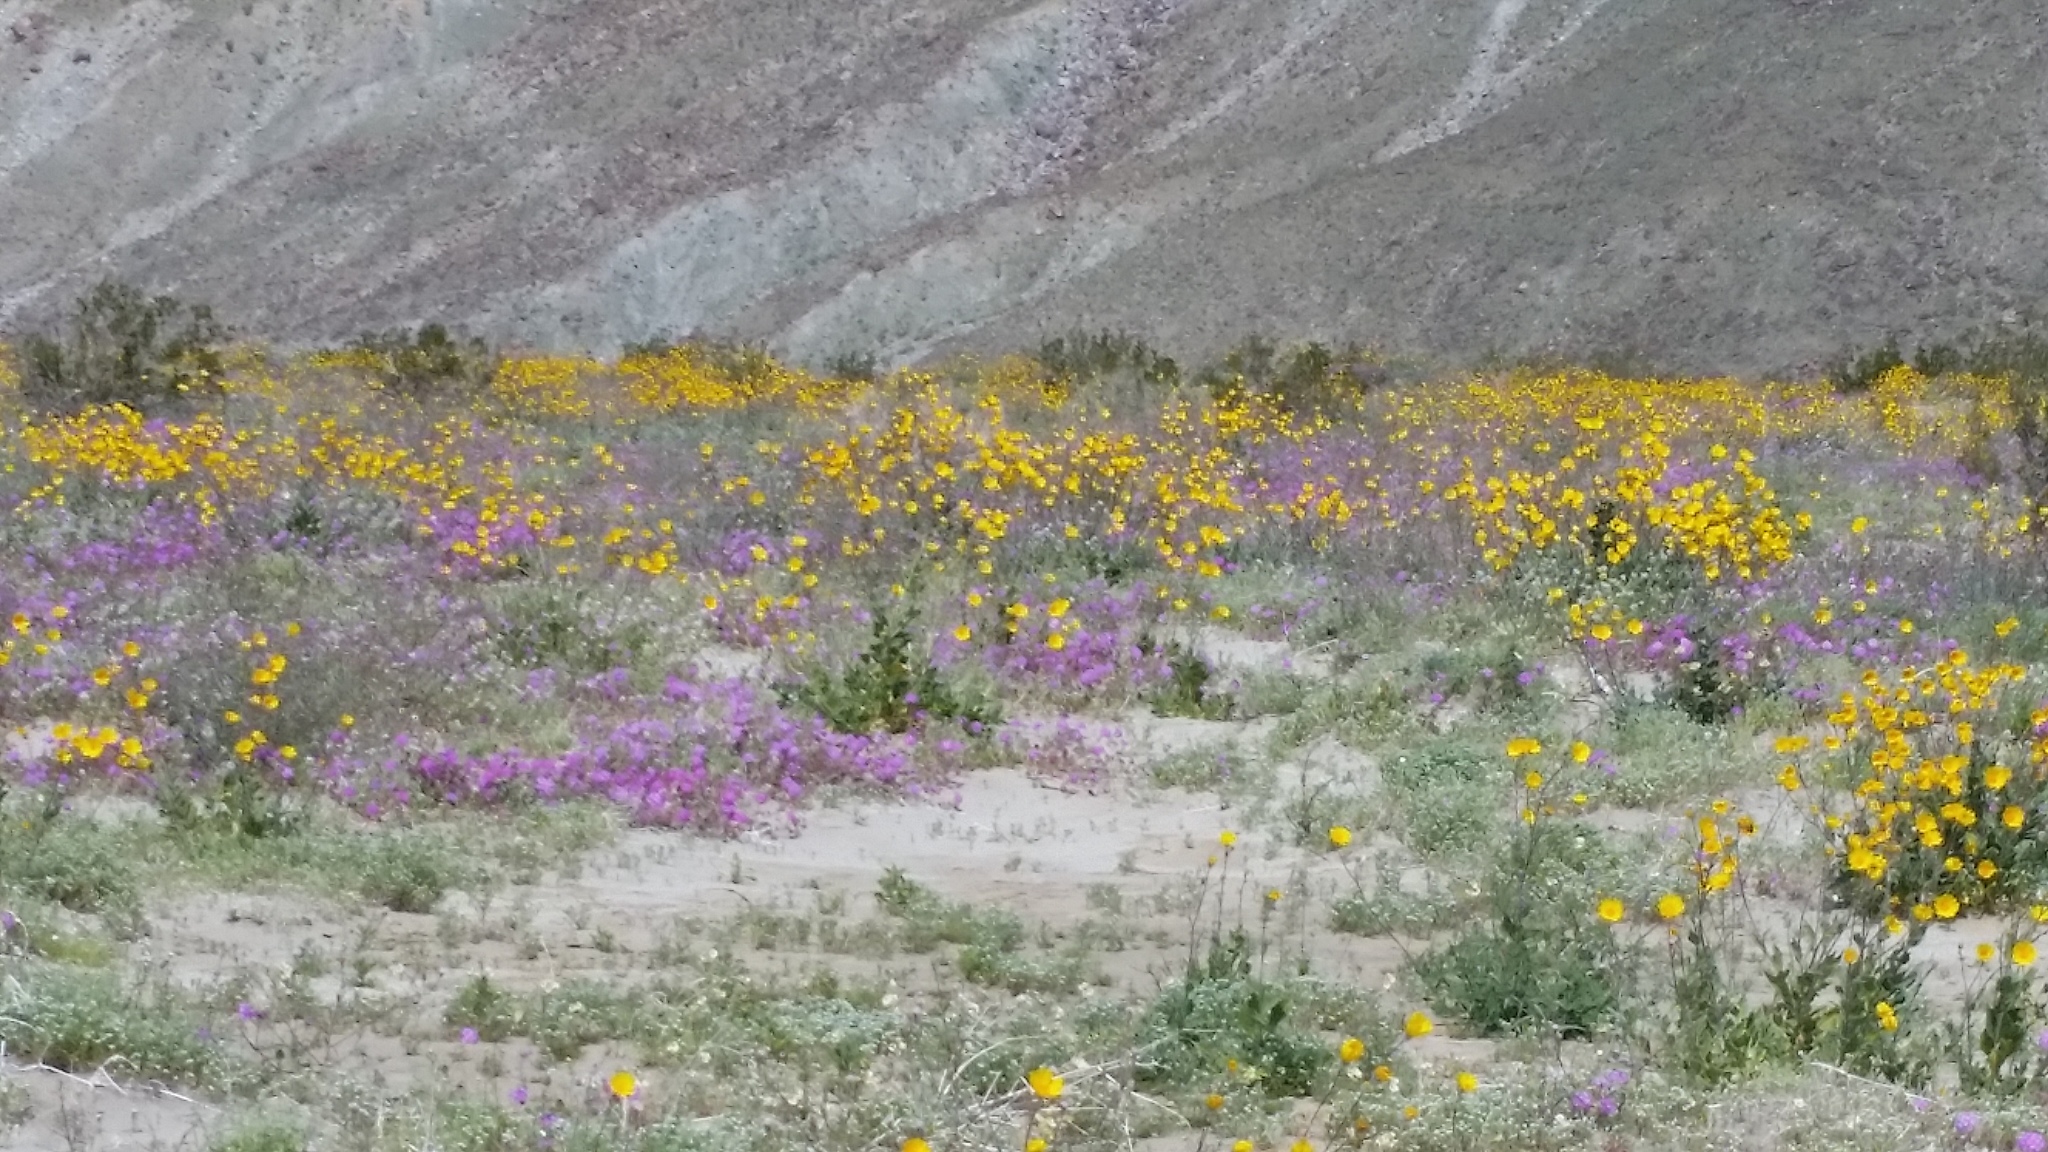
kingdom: Plantae
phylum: Tracheophyta
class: Magnoliopsida
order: Asterales
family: Asteraceae
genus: Geraea
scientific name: Geraea canescens
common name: Desert-gold
